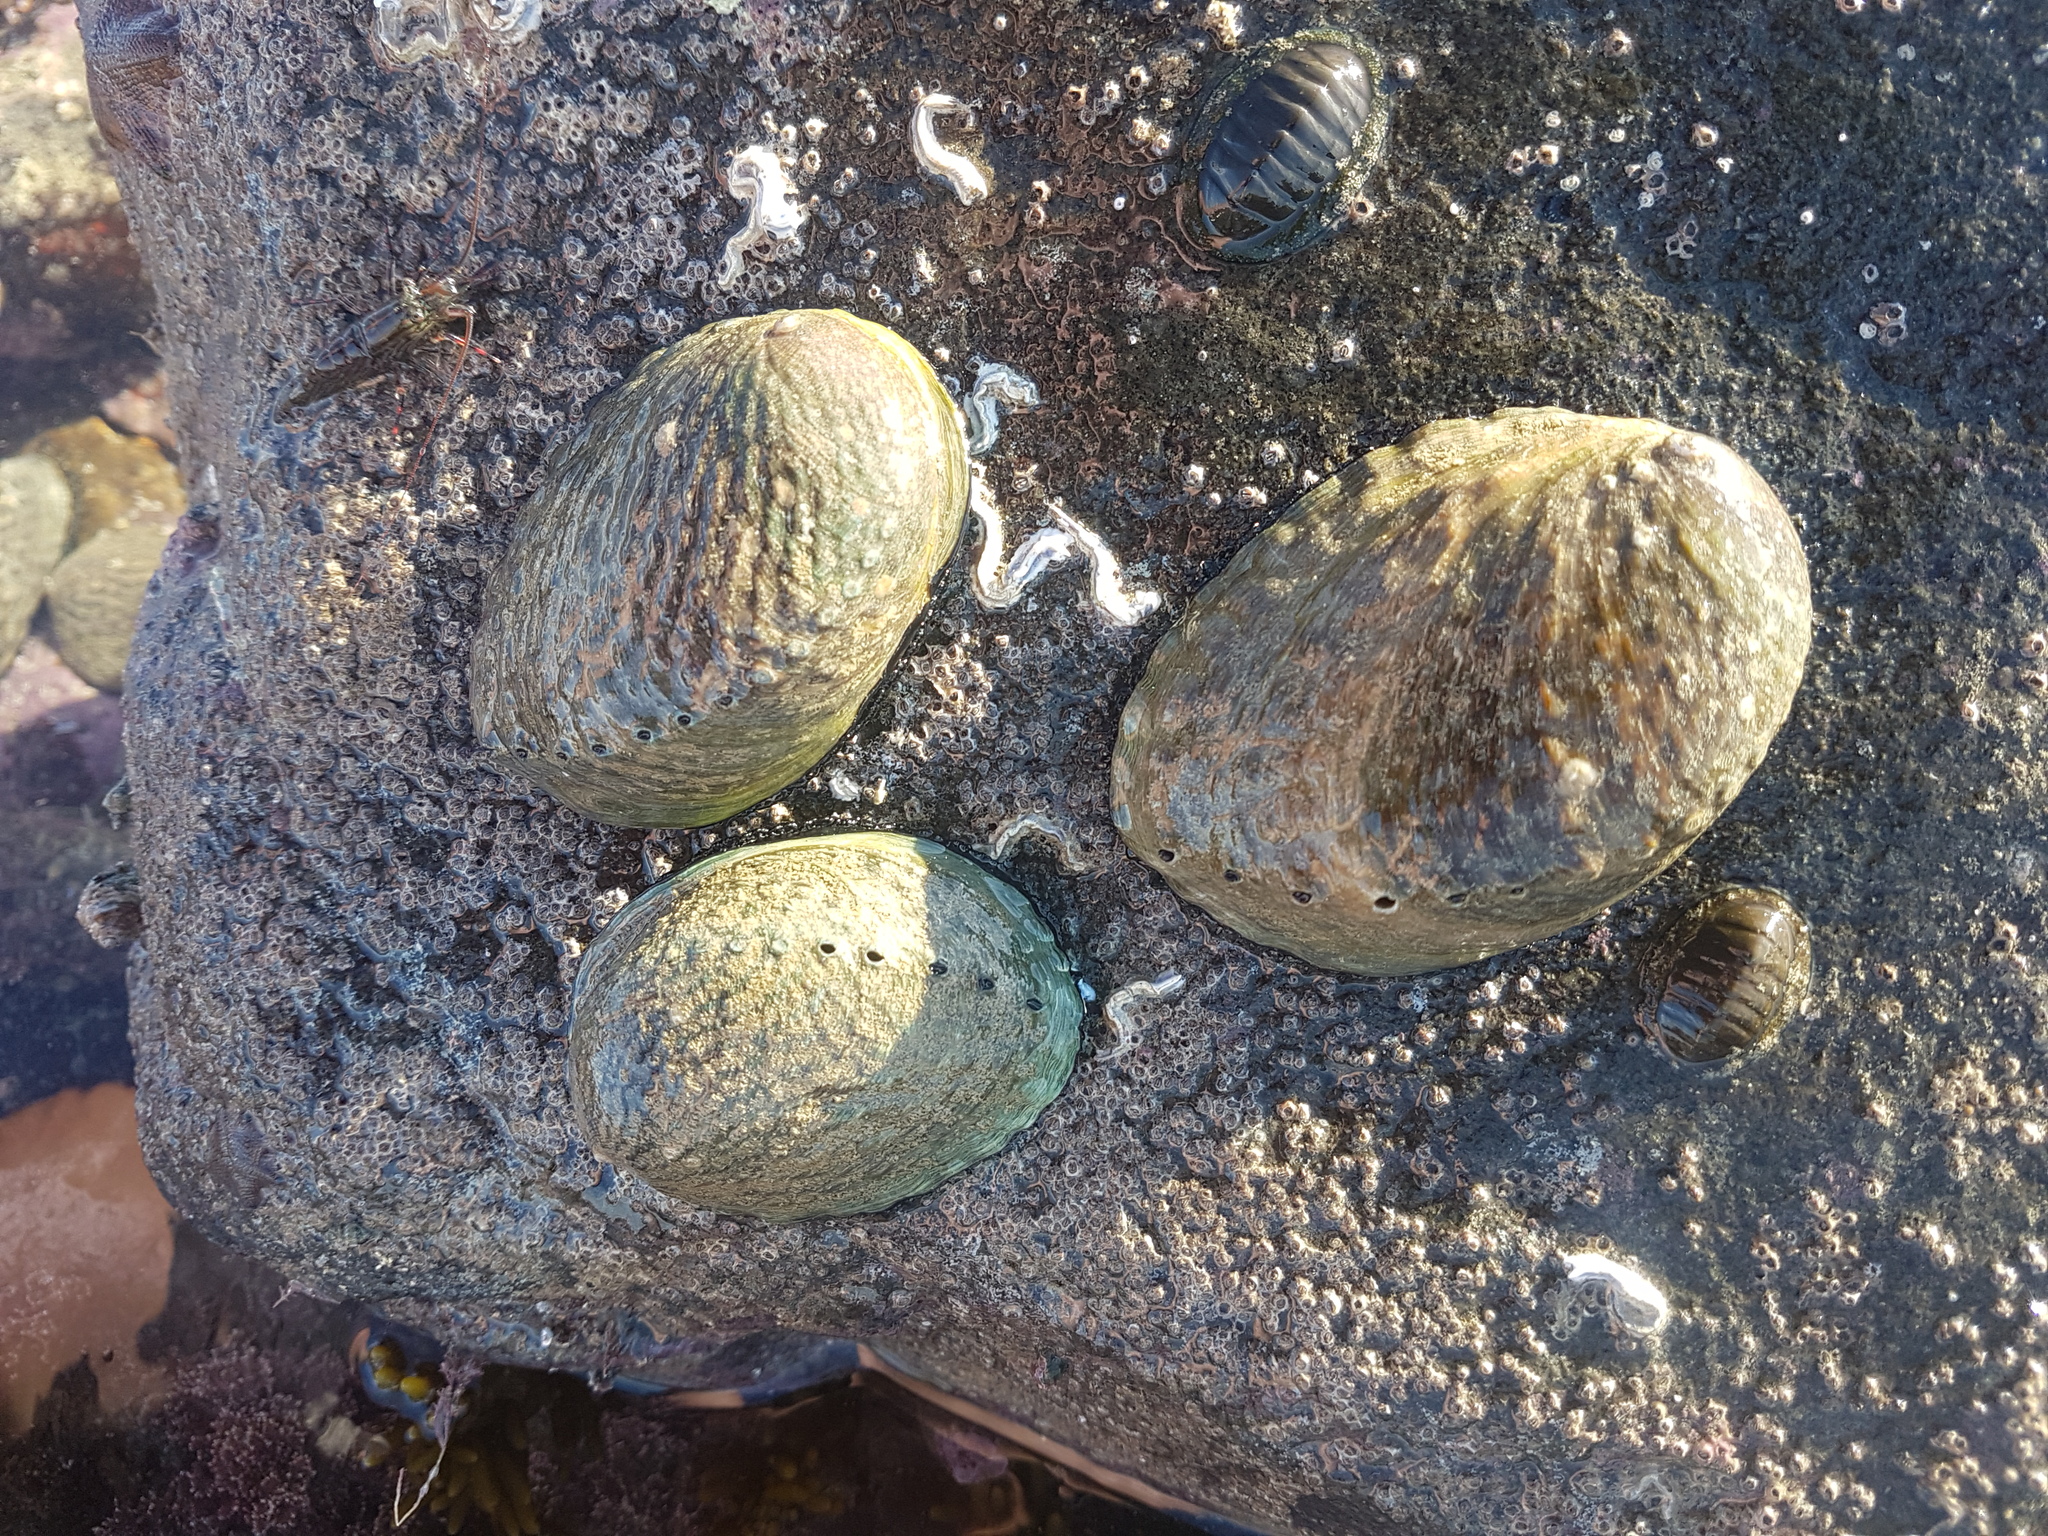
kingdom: Animalia
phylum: Mollusca
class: Gastropoda
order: Lepetellida
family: Haliotidae
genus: Haliotis
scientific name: Haliotis iris
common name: Abalone
